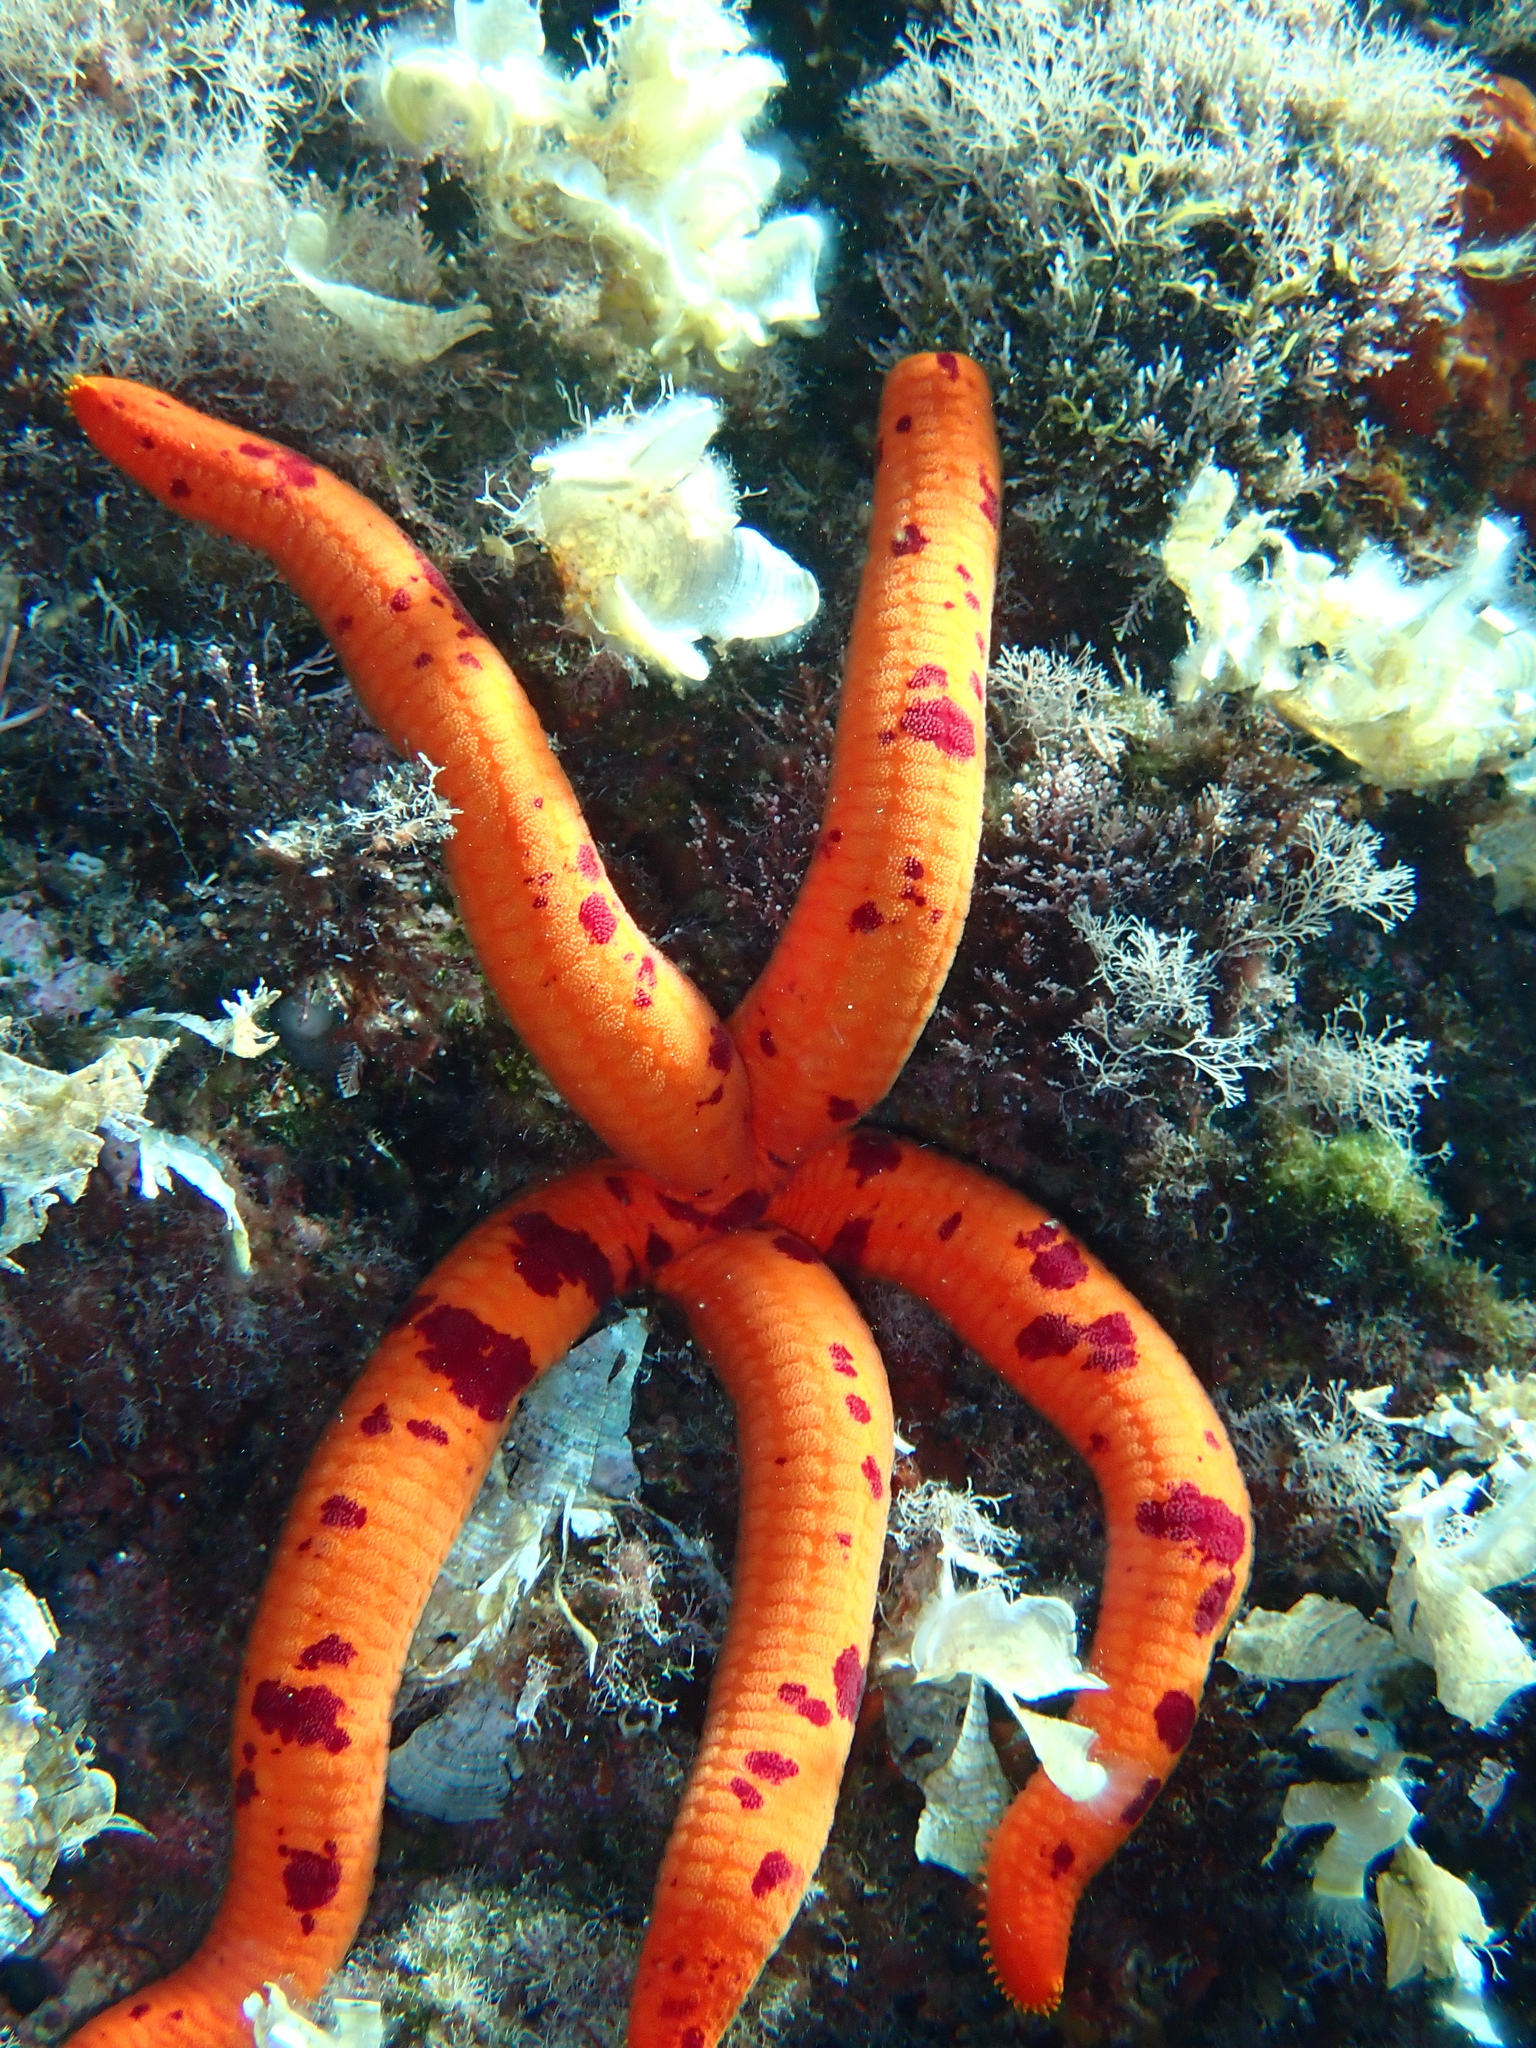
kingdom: Animalia
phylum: Echinodermata
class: Asteroidea
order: Valvatida
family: Ophidiasteridae
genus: Ophidiaster
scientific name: Ophidiaster ophidianus
